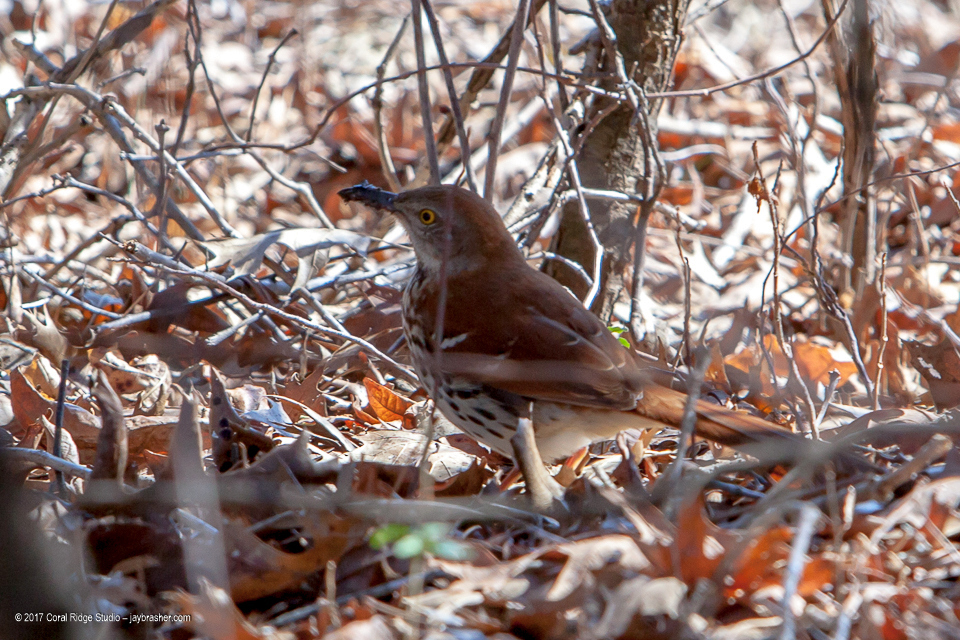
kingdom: Animalia
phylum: Chordata
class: Aves
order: Passeriformes
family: Mimidae
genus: Toxostoma
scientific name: Toxostoma rufum
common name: Brown thrasher
